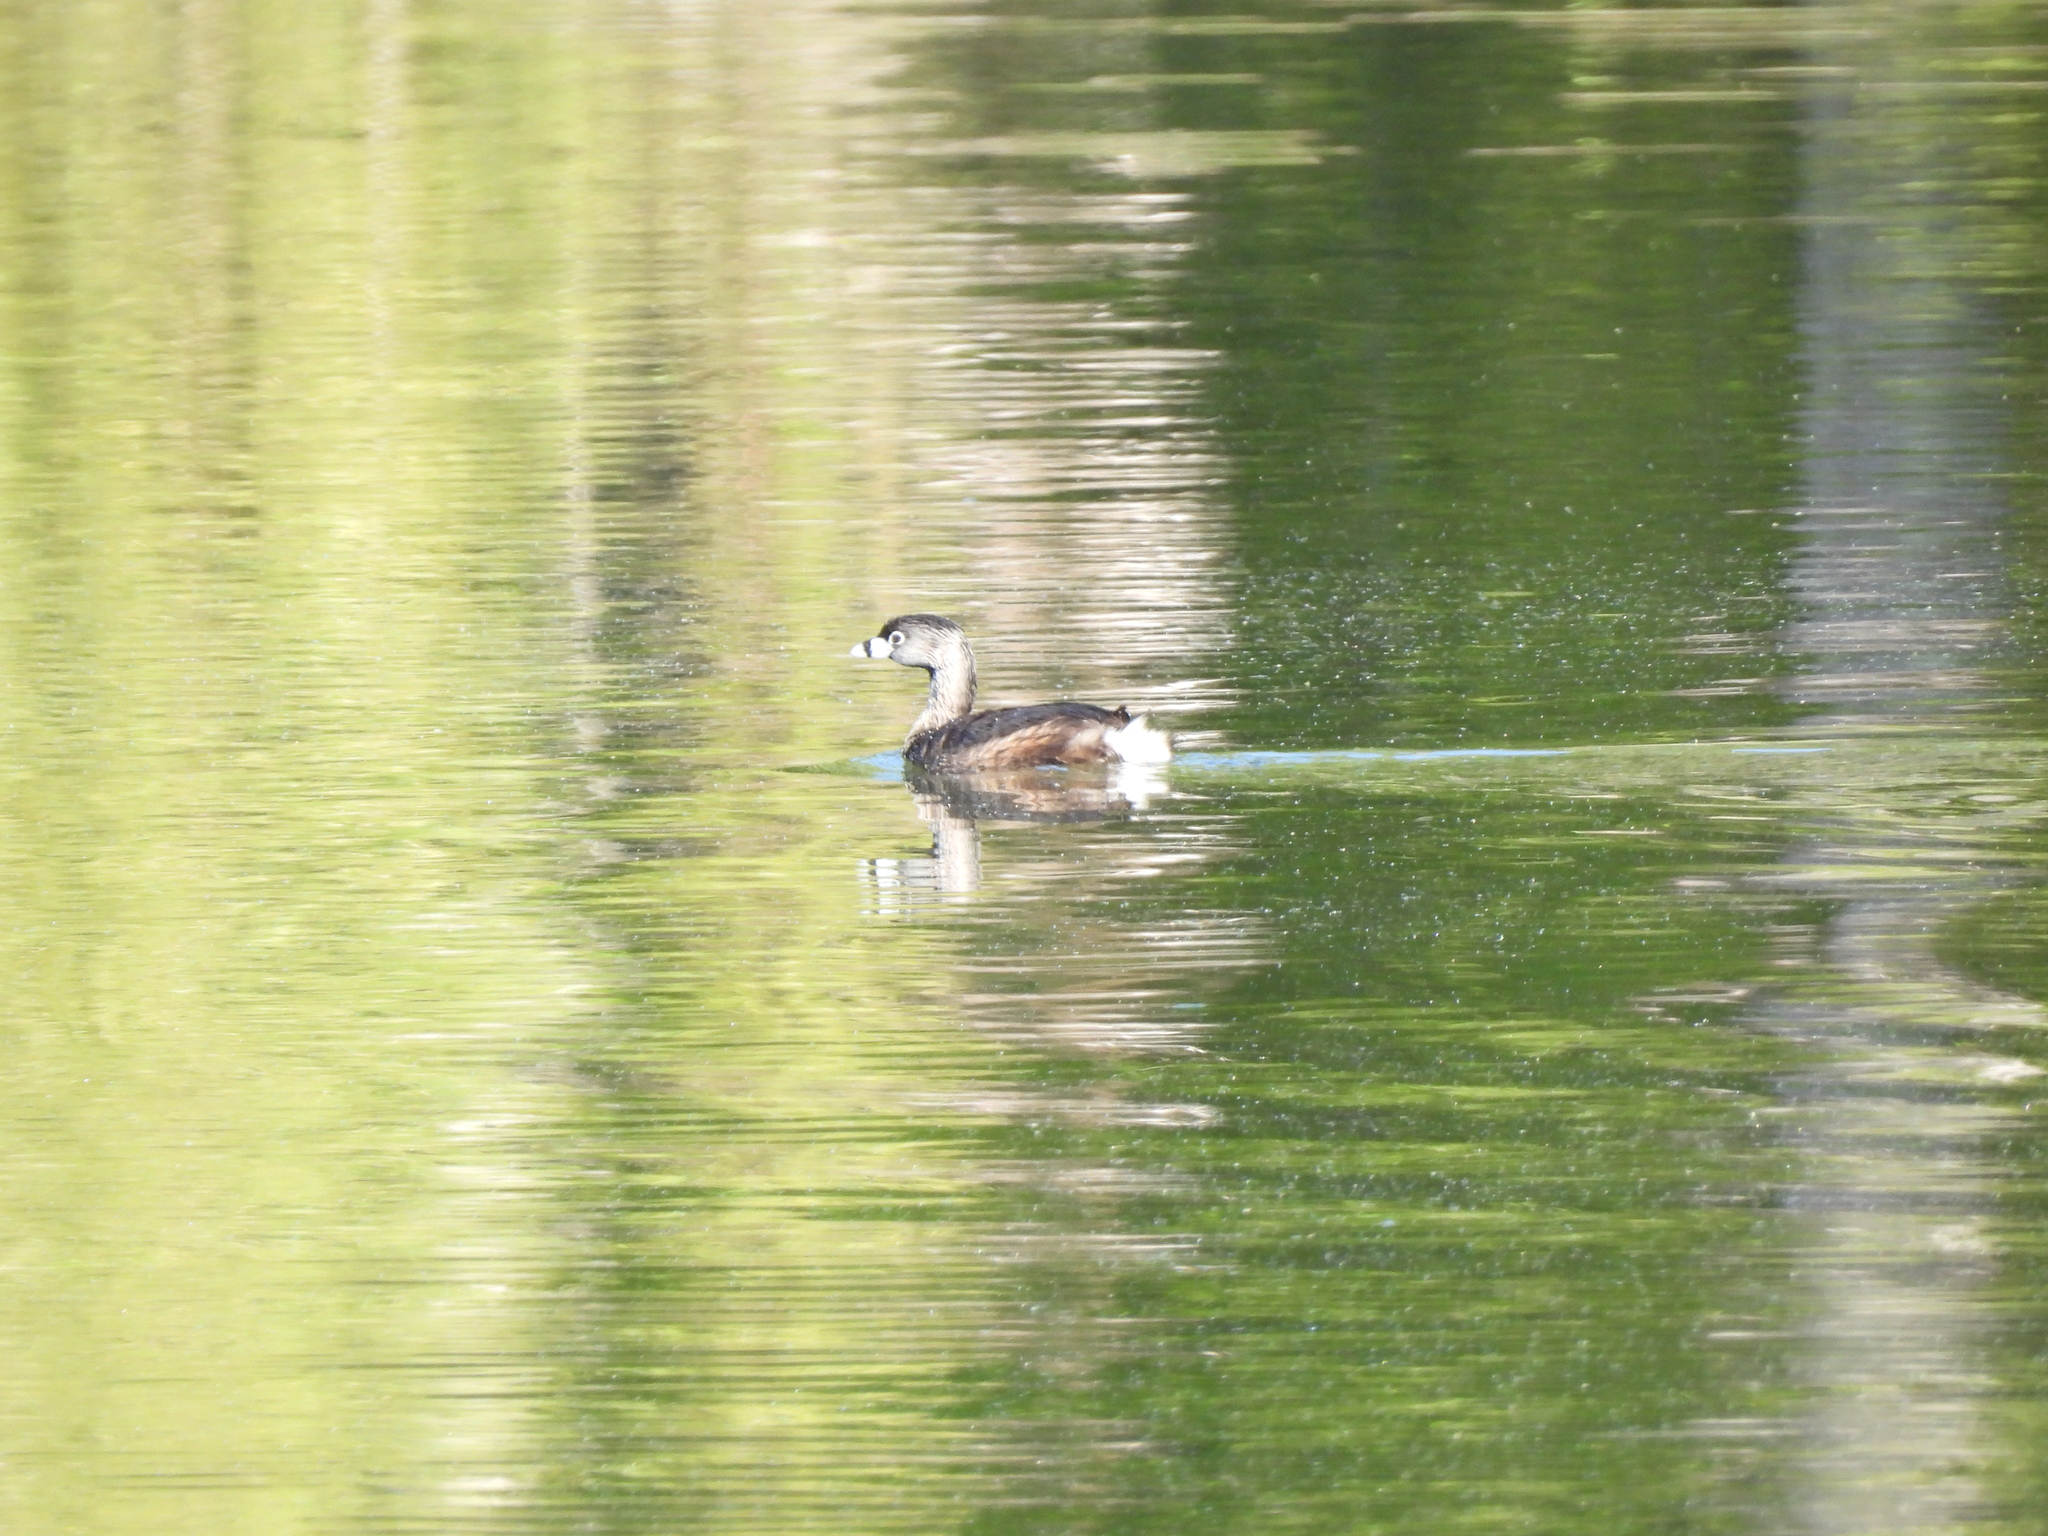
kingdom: Animalia
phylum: Chordata
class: Aves
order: Podicipediformes
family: Podicipedidae
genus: Podilymbus
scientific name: Podilymbus podiceps
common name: Pied-billed grebe
